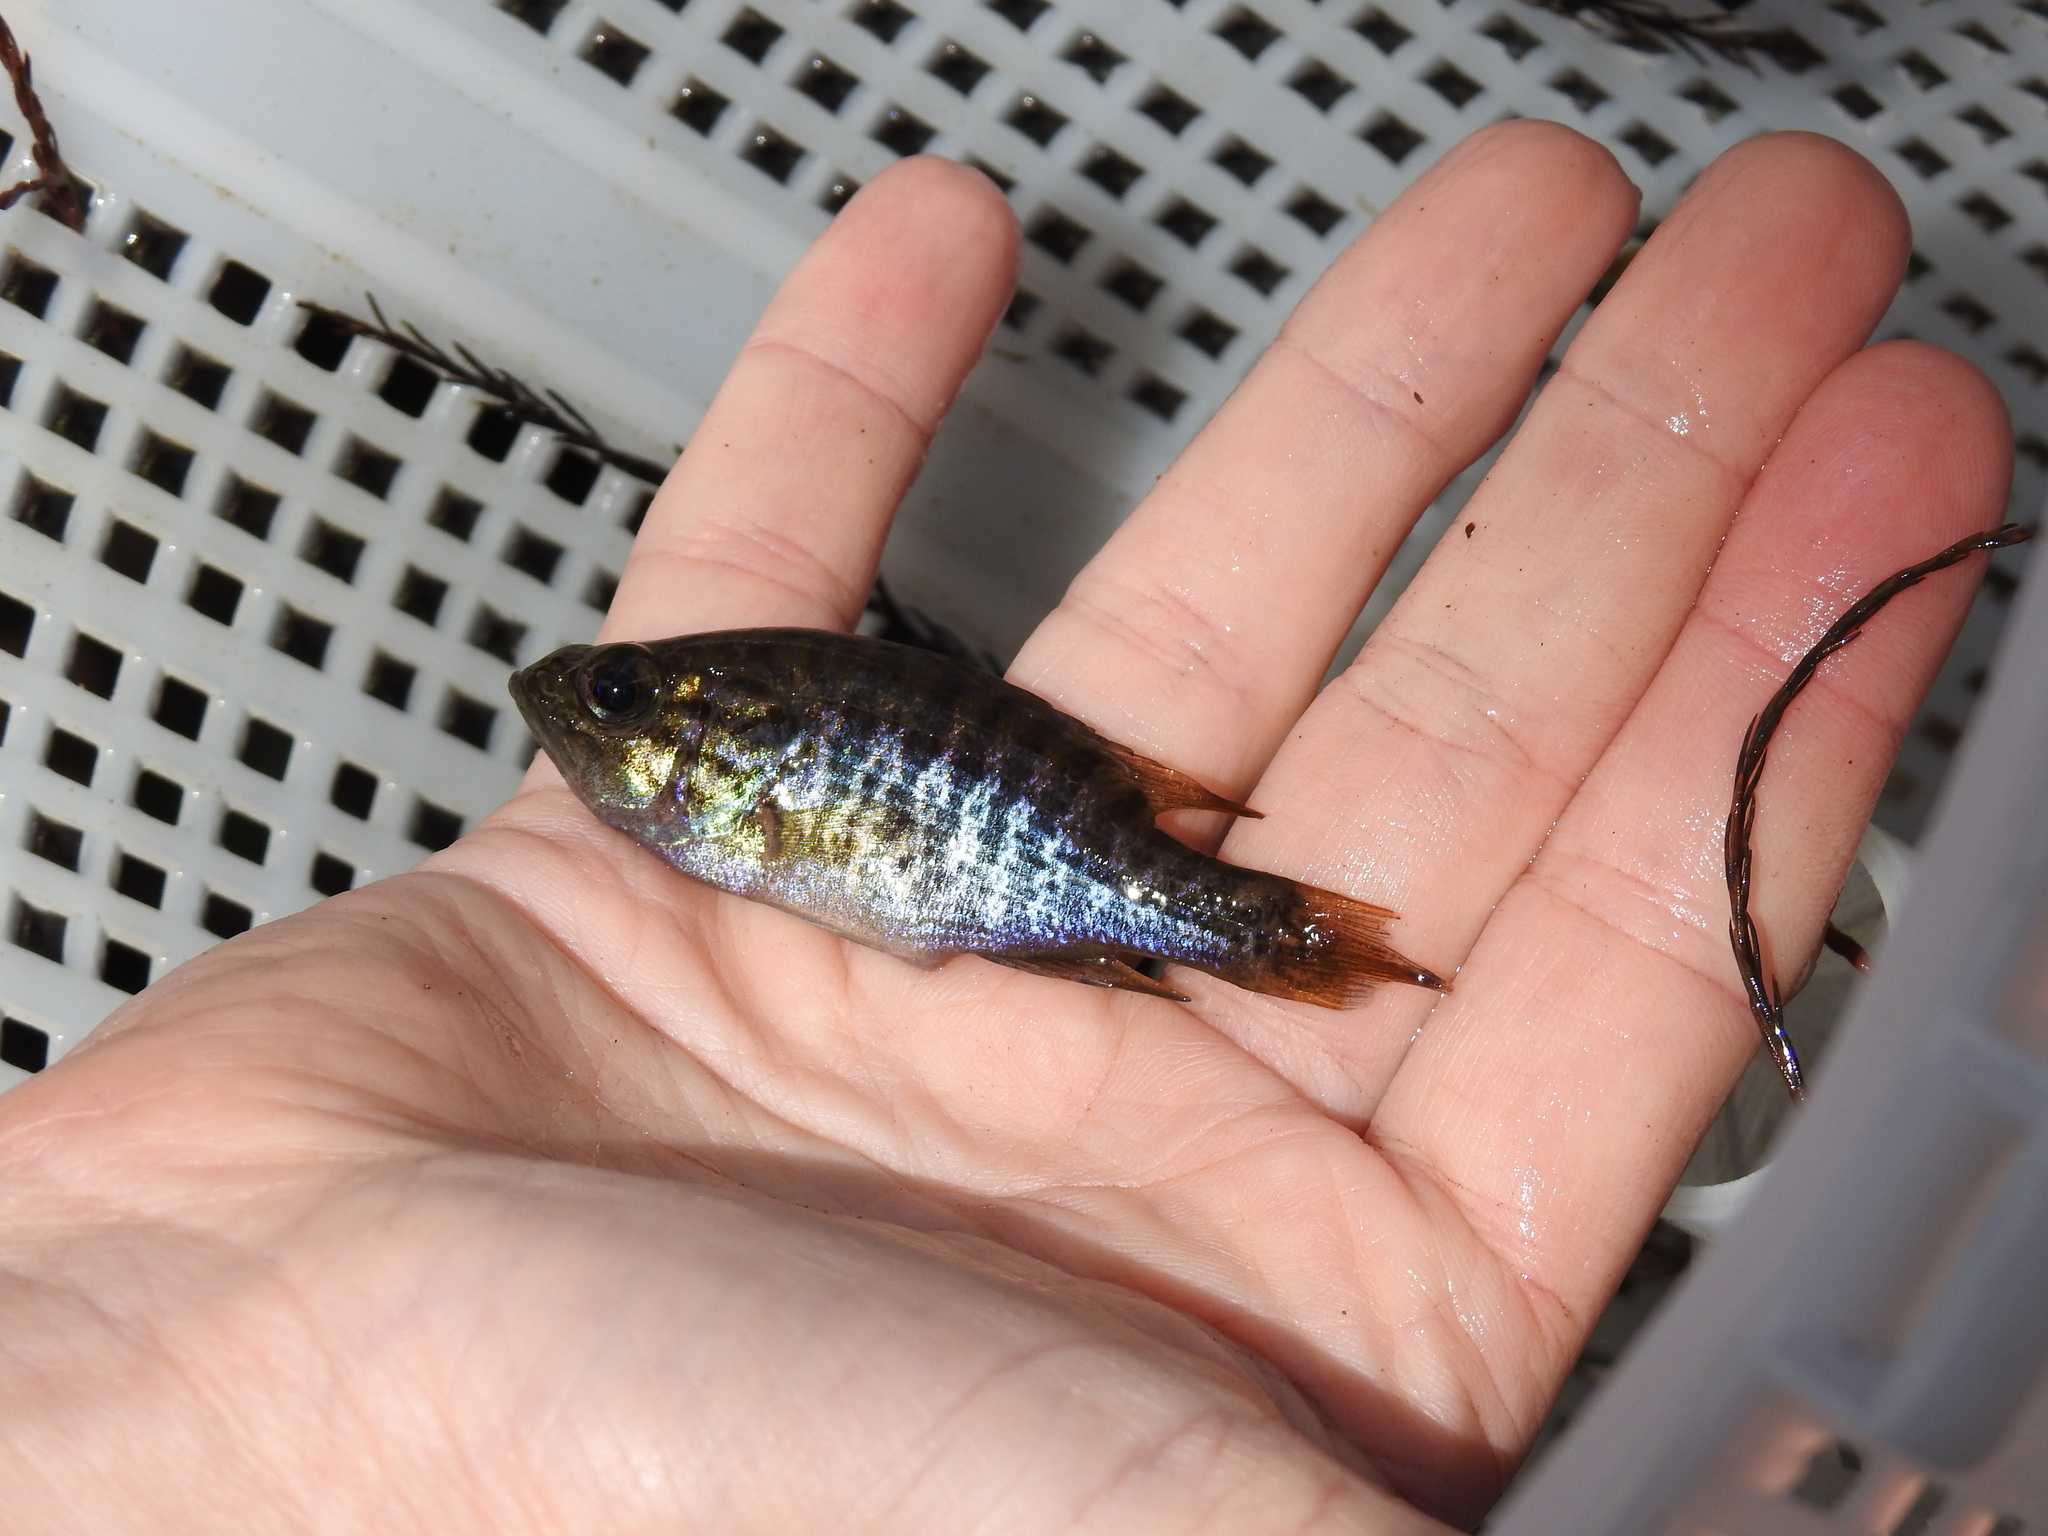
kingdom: Animalia
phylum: Chordata
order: Perciformes
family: Centrarchidae
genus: Lepomis
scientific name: Lepomis gulosus
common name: Warmouth
